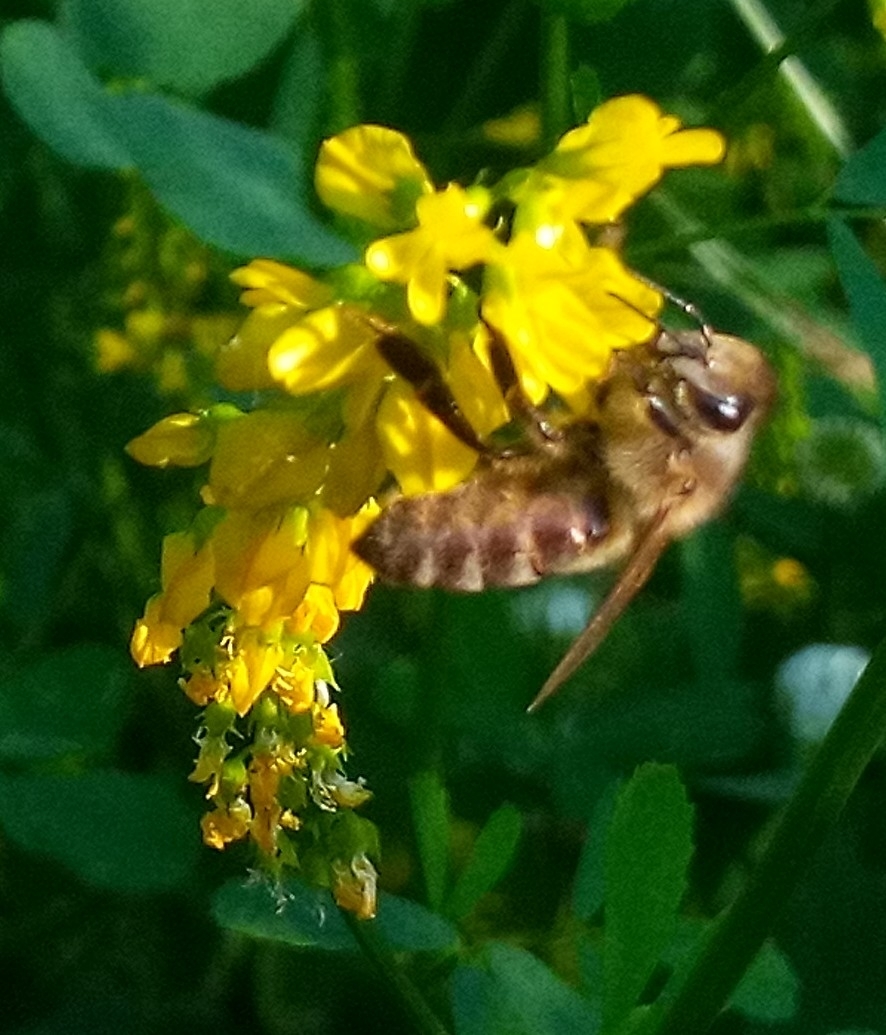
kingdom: Animalia
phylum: Arthropoda
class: Insecta
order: Hymenoptera
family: Apidae
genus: Apis
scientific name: Apis mellifera
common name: Honey bee
